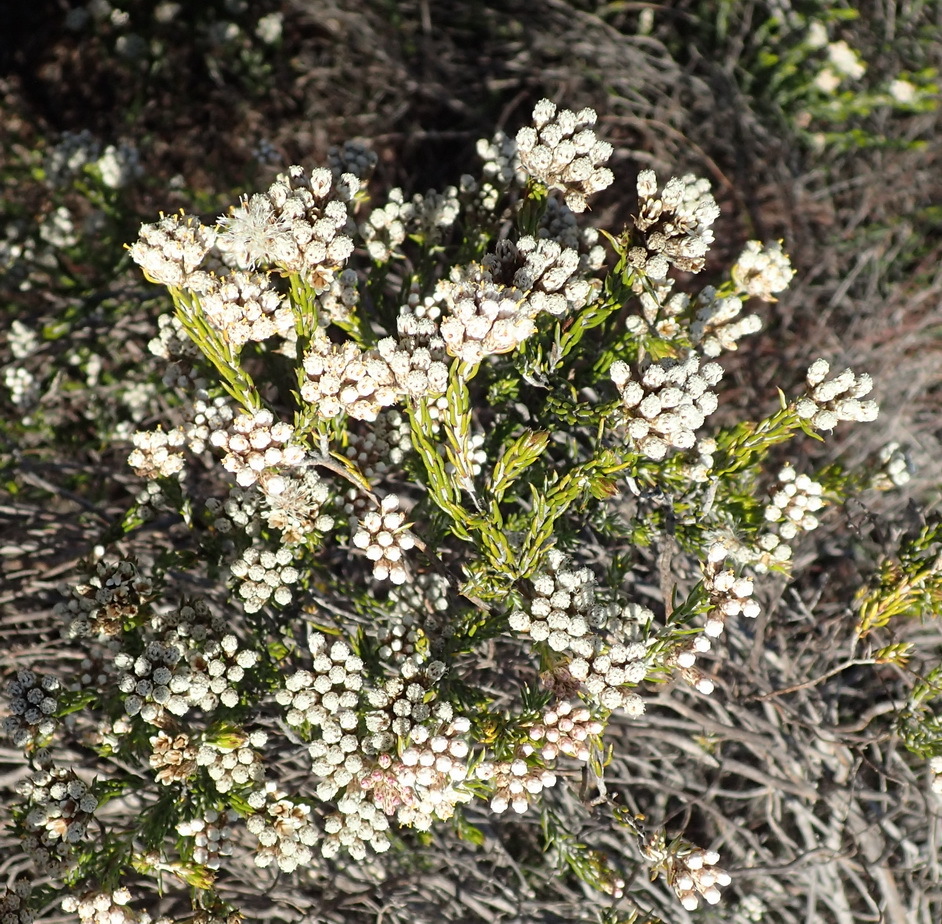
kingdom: Plantae
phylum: Tracheophyta
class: Magnoliopsida
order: Asterales
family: Asteraceae
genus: Metalasia
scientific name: Metalasia pallida
